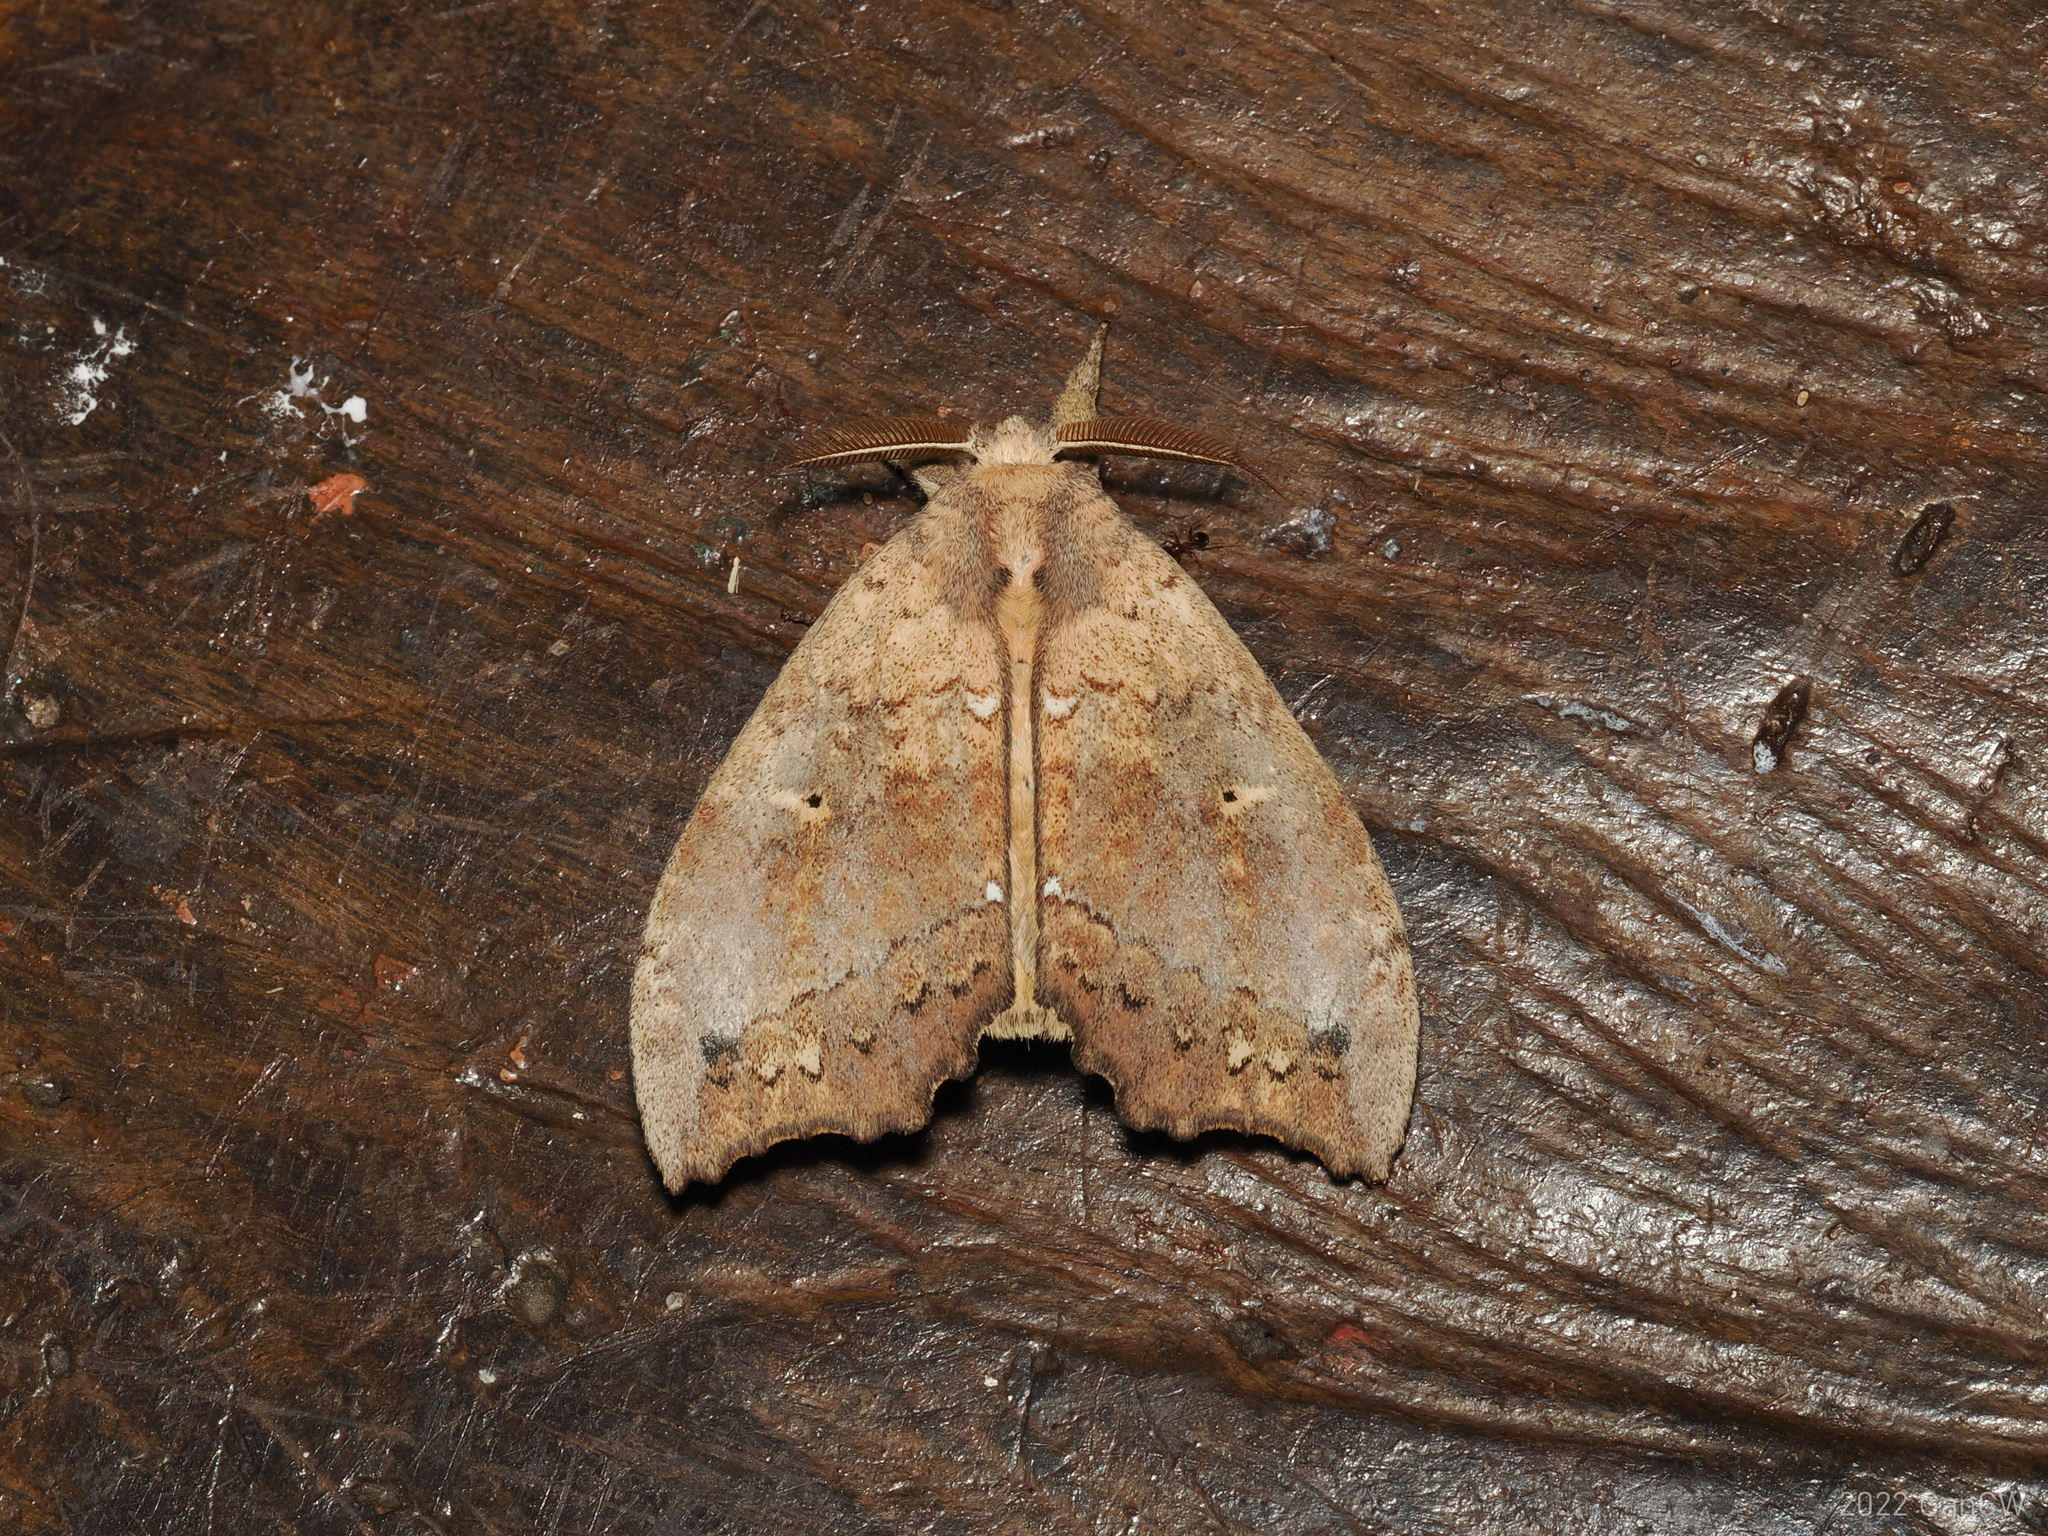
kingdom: Animalia
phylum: Arthropoda
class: Insecta
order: Lepidoptera
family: Notodontidae
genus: Gangarides
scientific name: Gangarides vardena
